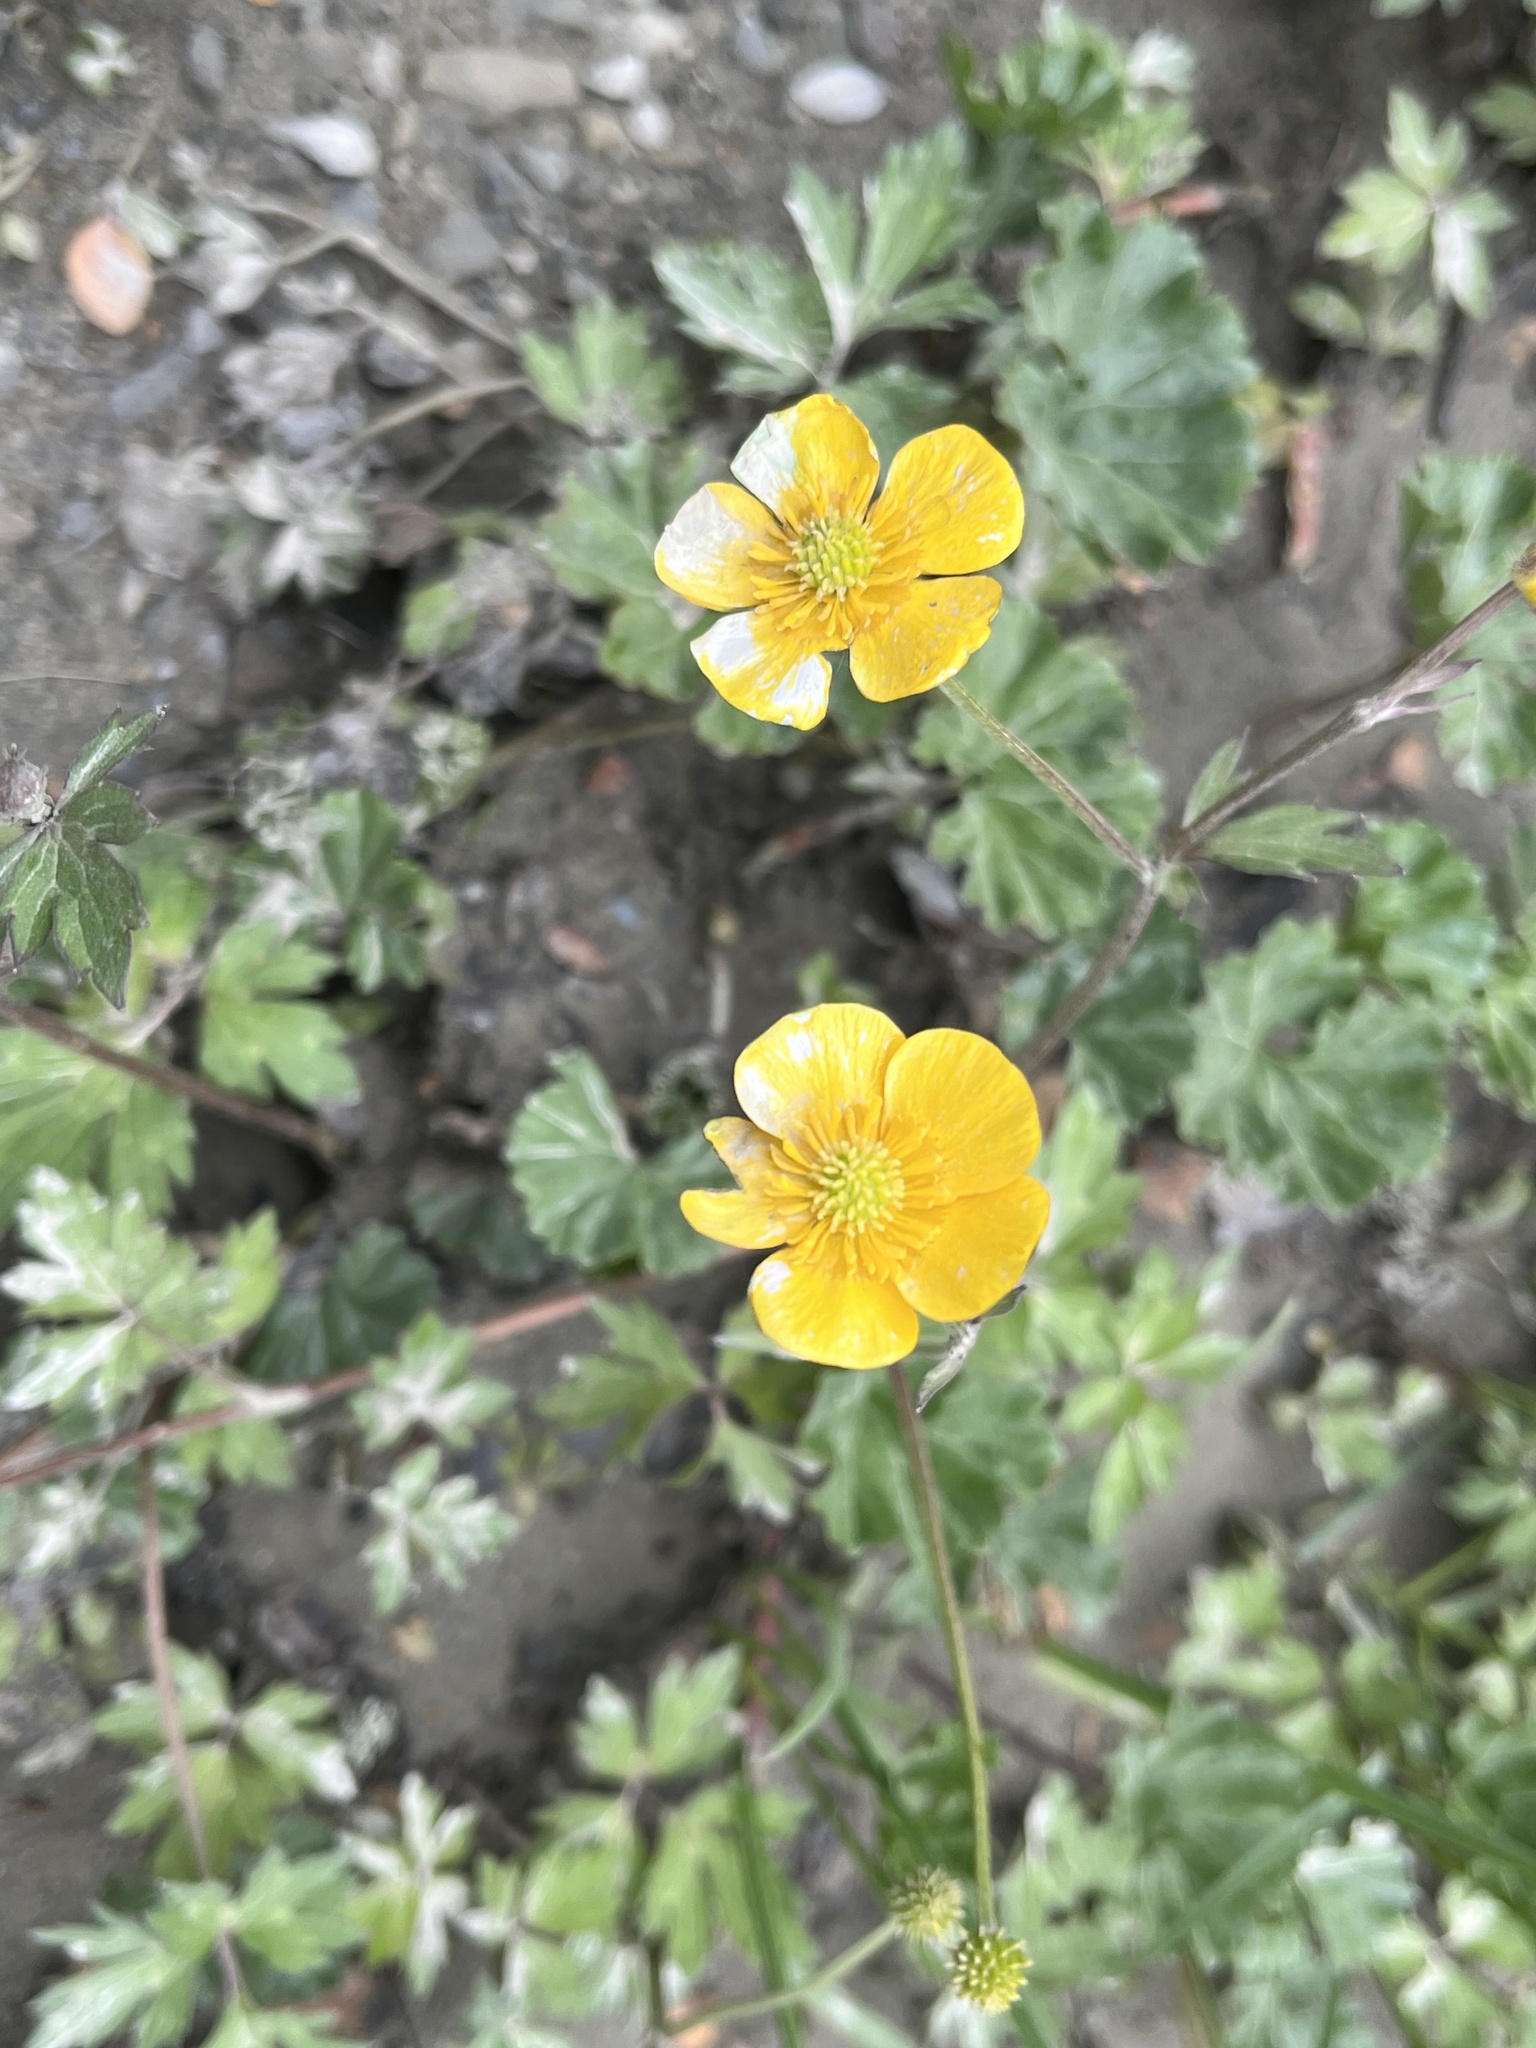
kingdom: Plantae
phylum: Tracheophyta
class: Magnoliopsida
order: Ranunculales
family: Ranunculaceae
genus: Ranunculus
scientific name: Ranunculus repens
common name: Creeping buttercup
